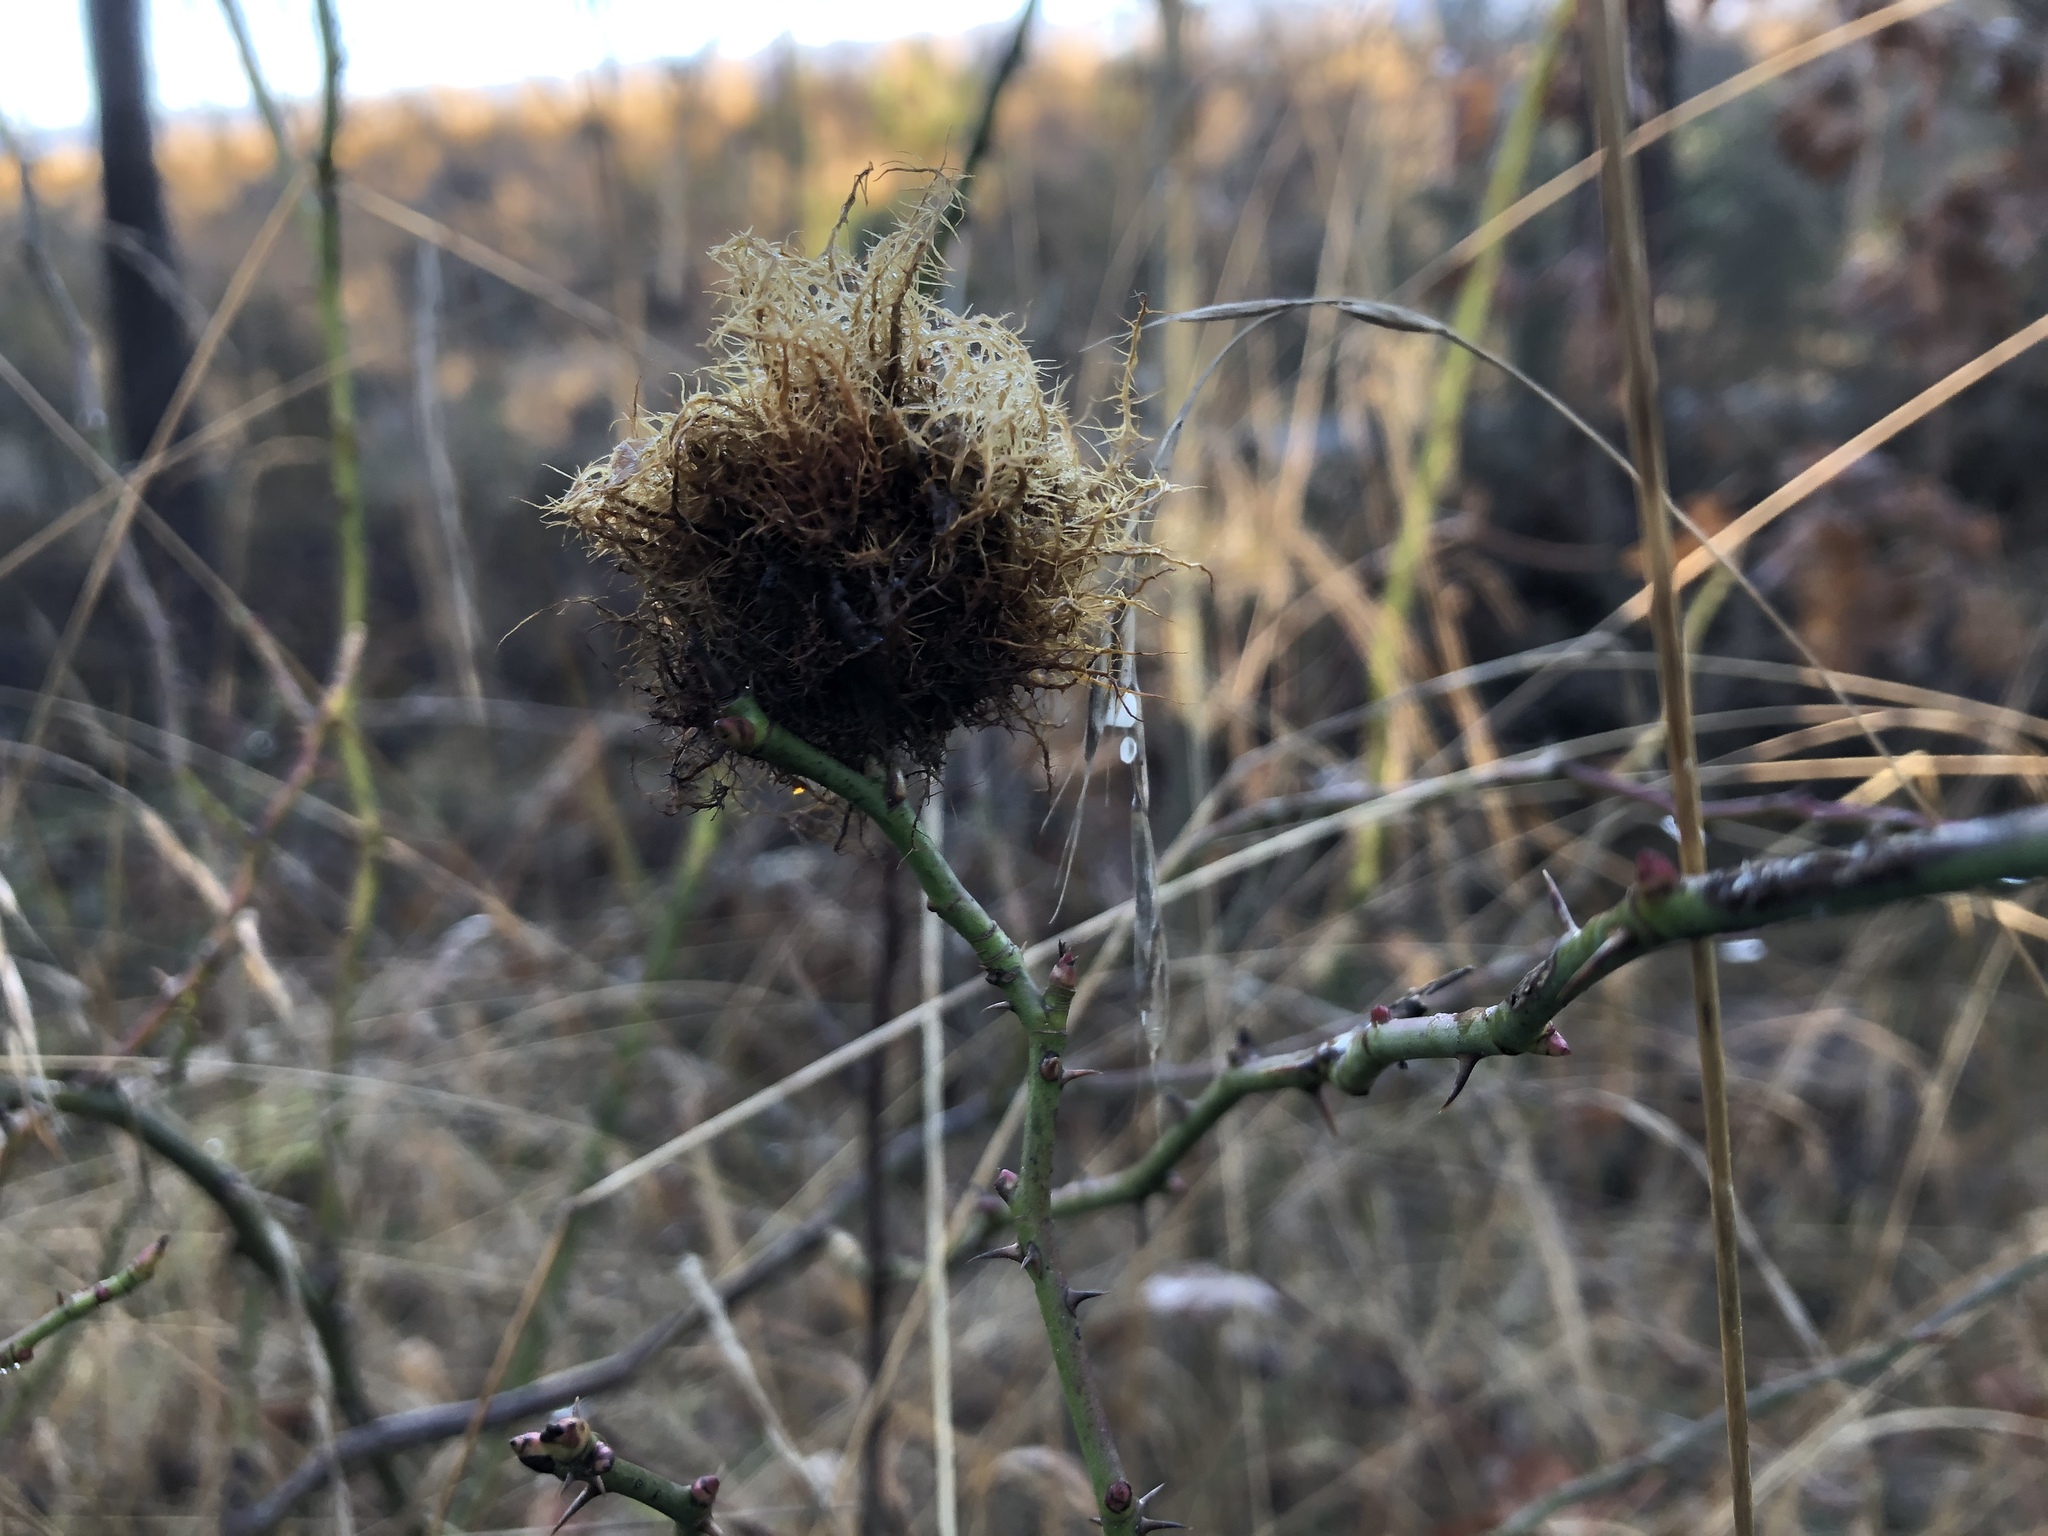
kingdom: Animalia
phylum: Arthropoda
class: Insecta
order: Hymenoptera
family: Cynipidae
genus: Diplolepis
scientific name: Diplolepis rosae
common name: Bedeguar gall
